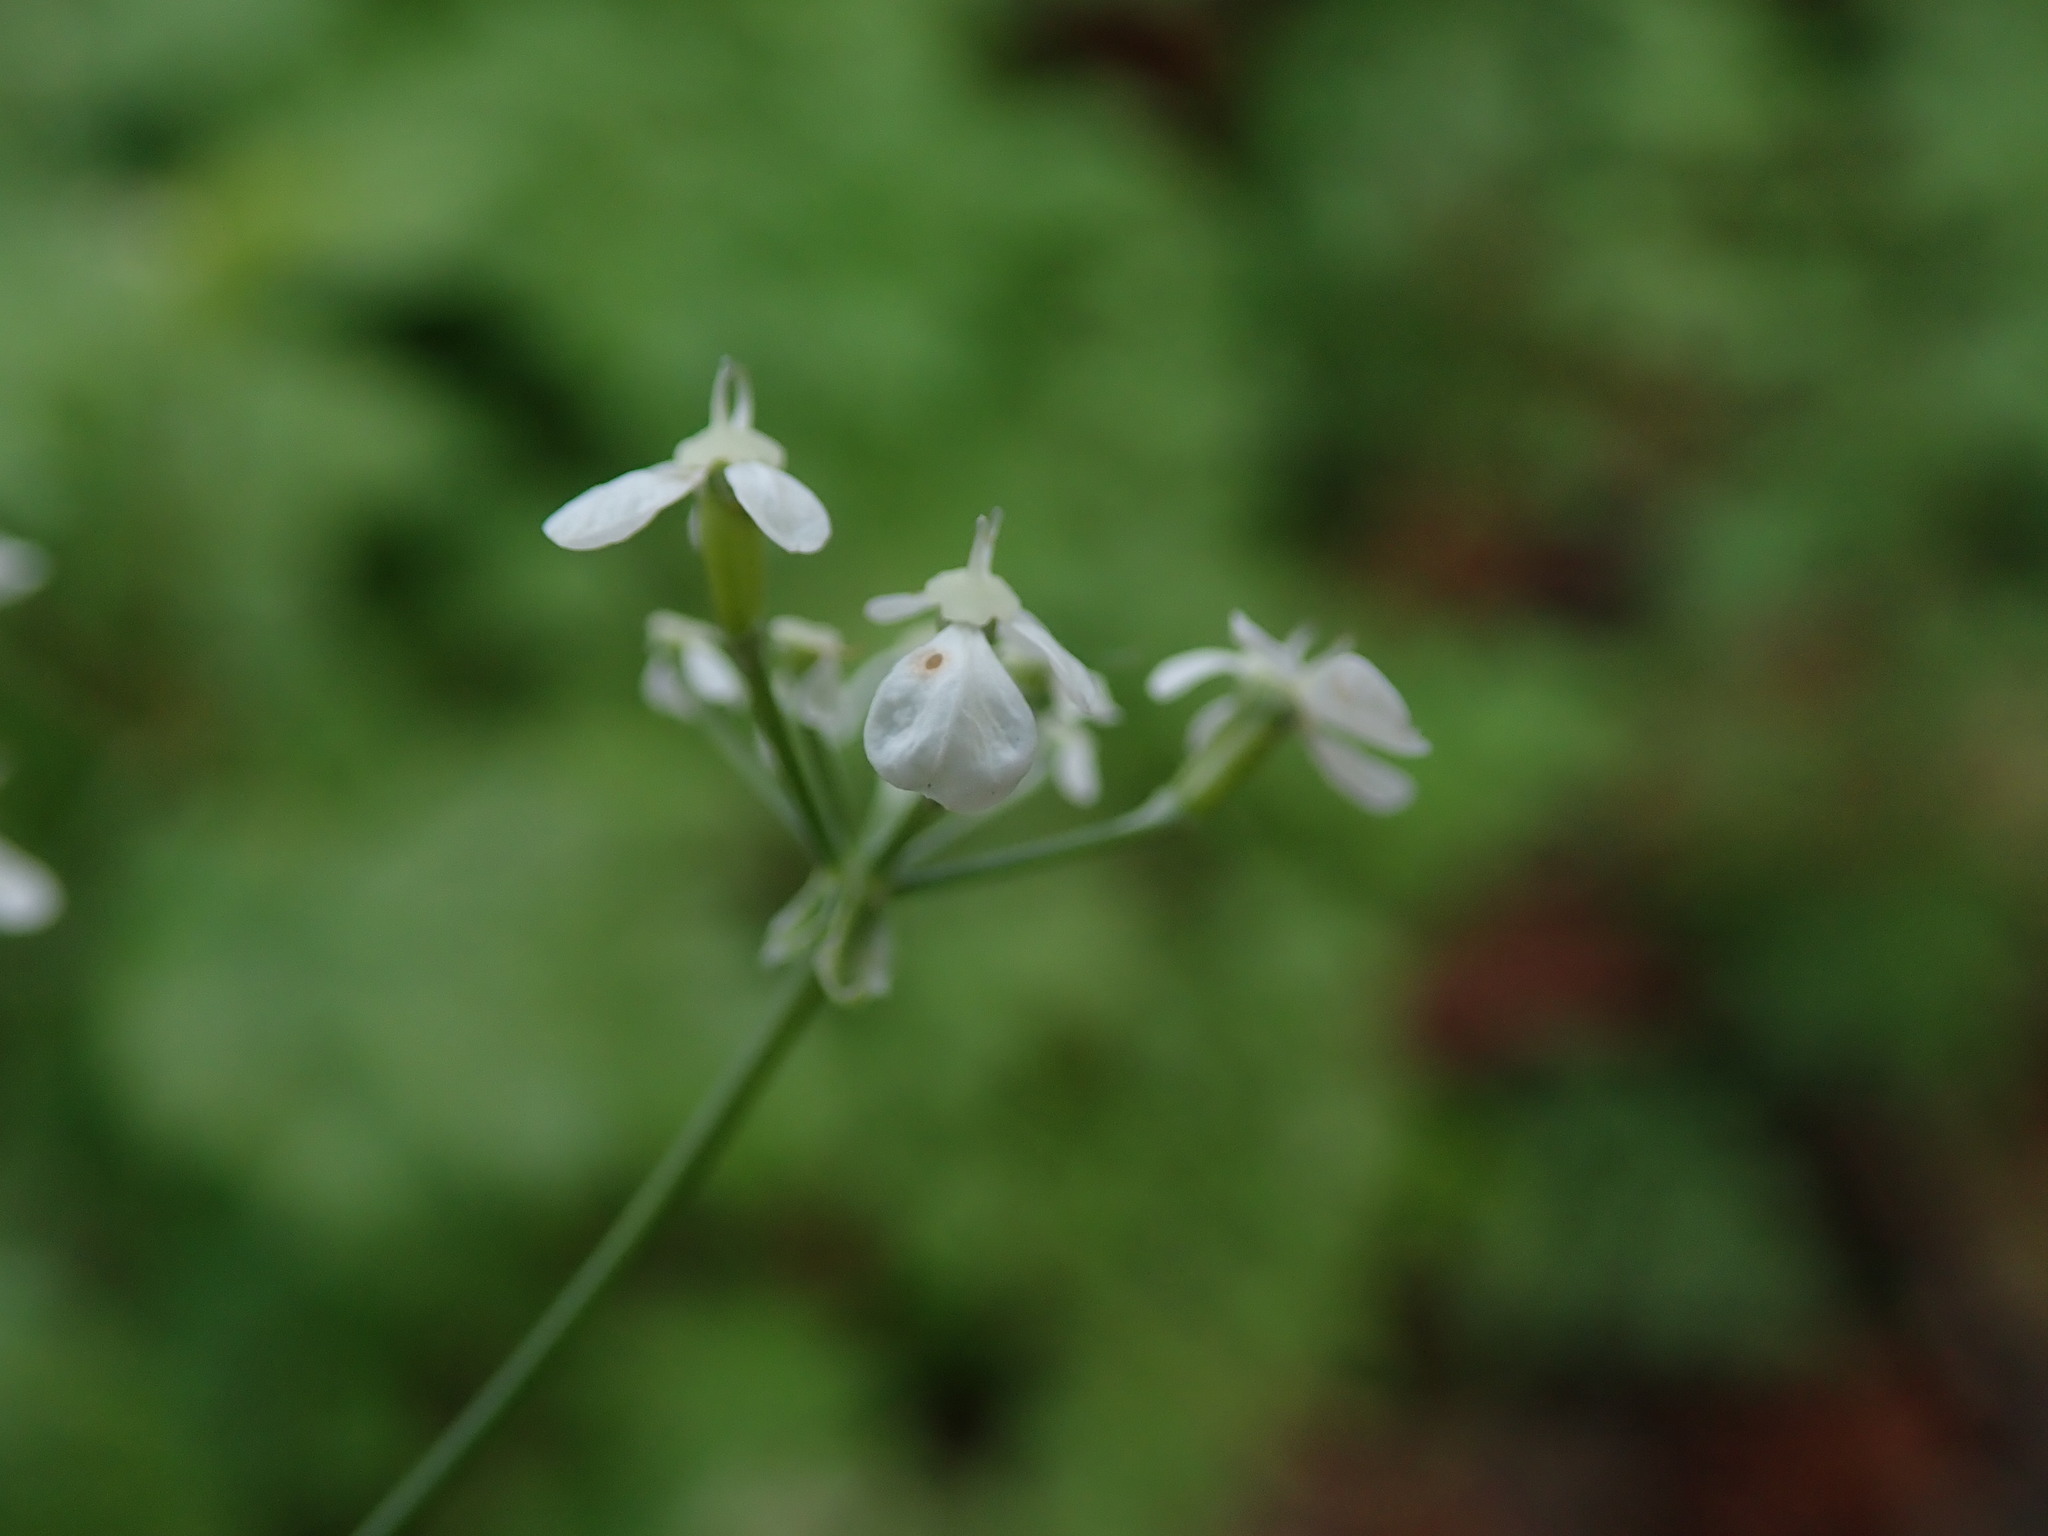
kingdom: Plantae
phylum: Tracheophyta
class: Magnoliopsida
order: Apiales
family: Apiaceae
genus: Anthriscus
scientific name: Anthriscus sylvestris
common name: Cow parsley
